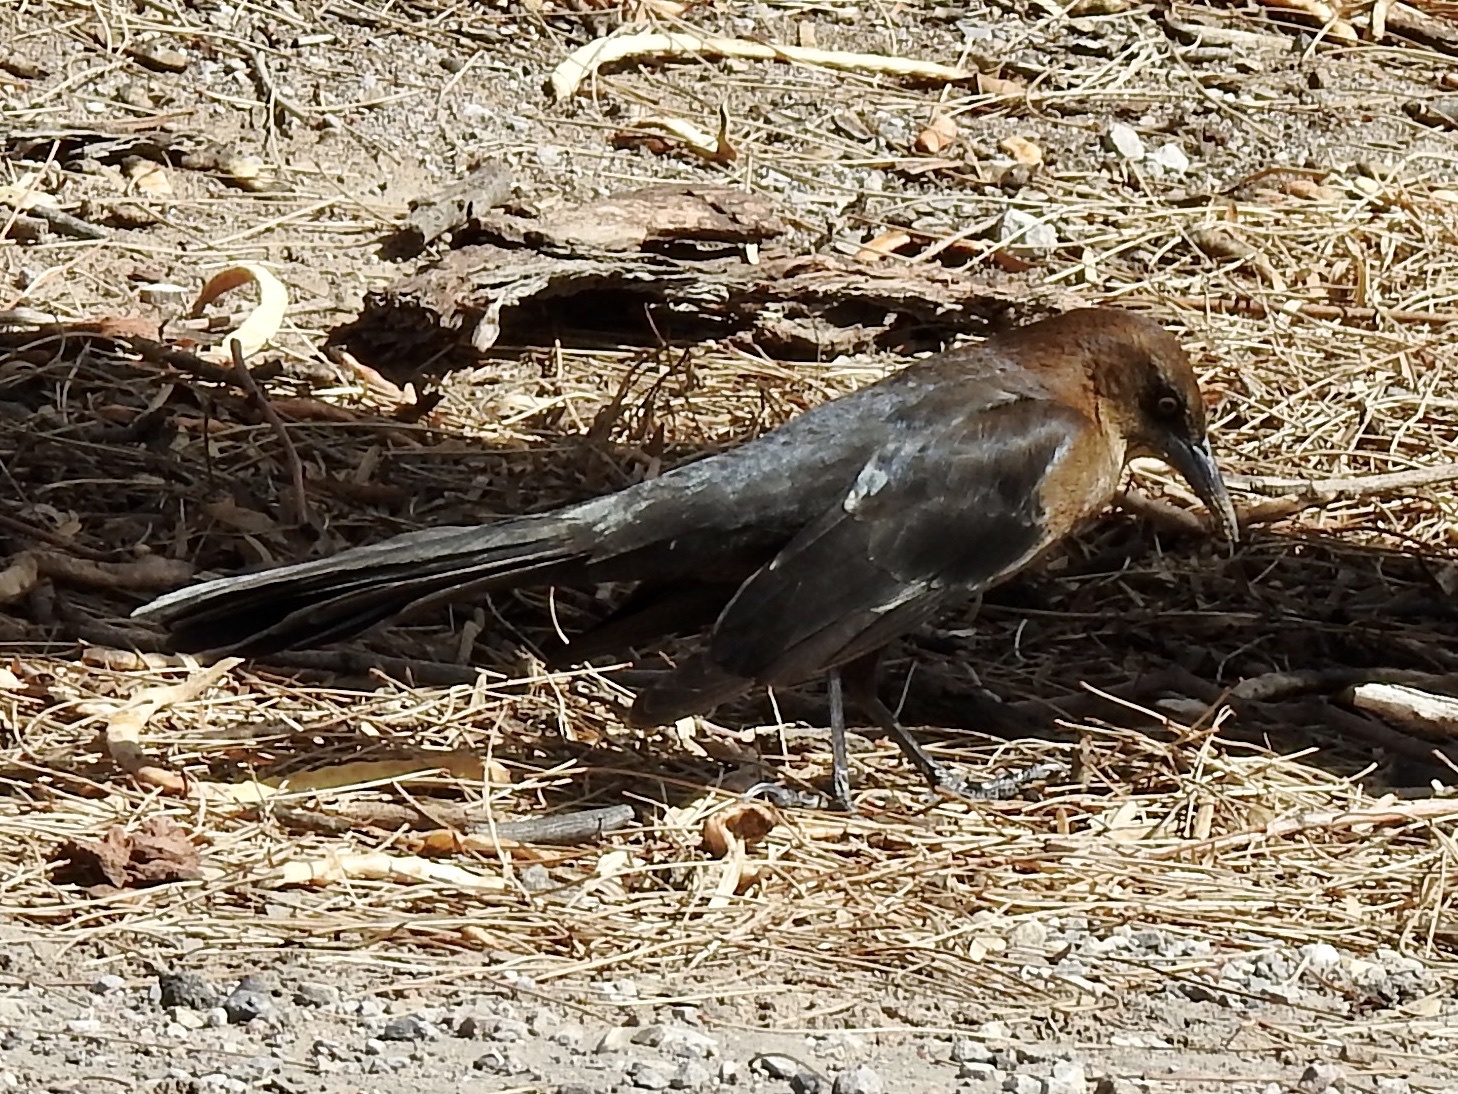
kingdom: Animalia
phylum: Chordata
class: Aves
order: Passeriformes
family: Icteridae
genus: Quiscalus
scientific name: Quiscalus mexicanus
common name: Great-tailed grackle
